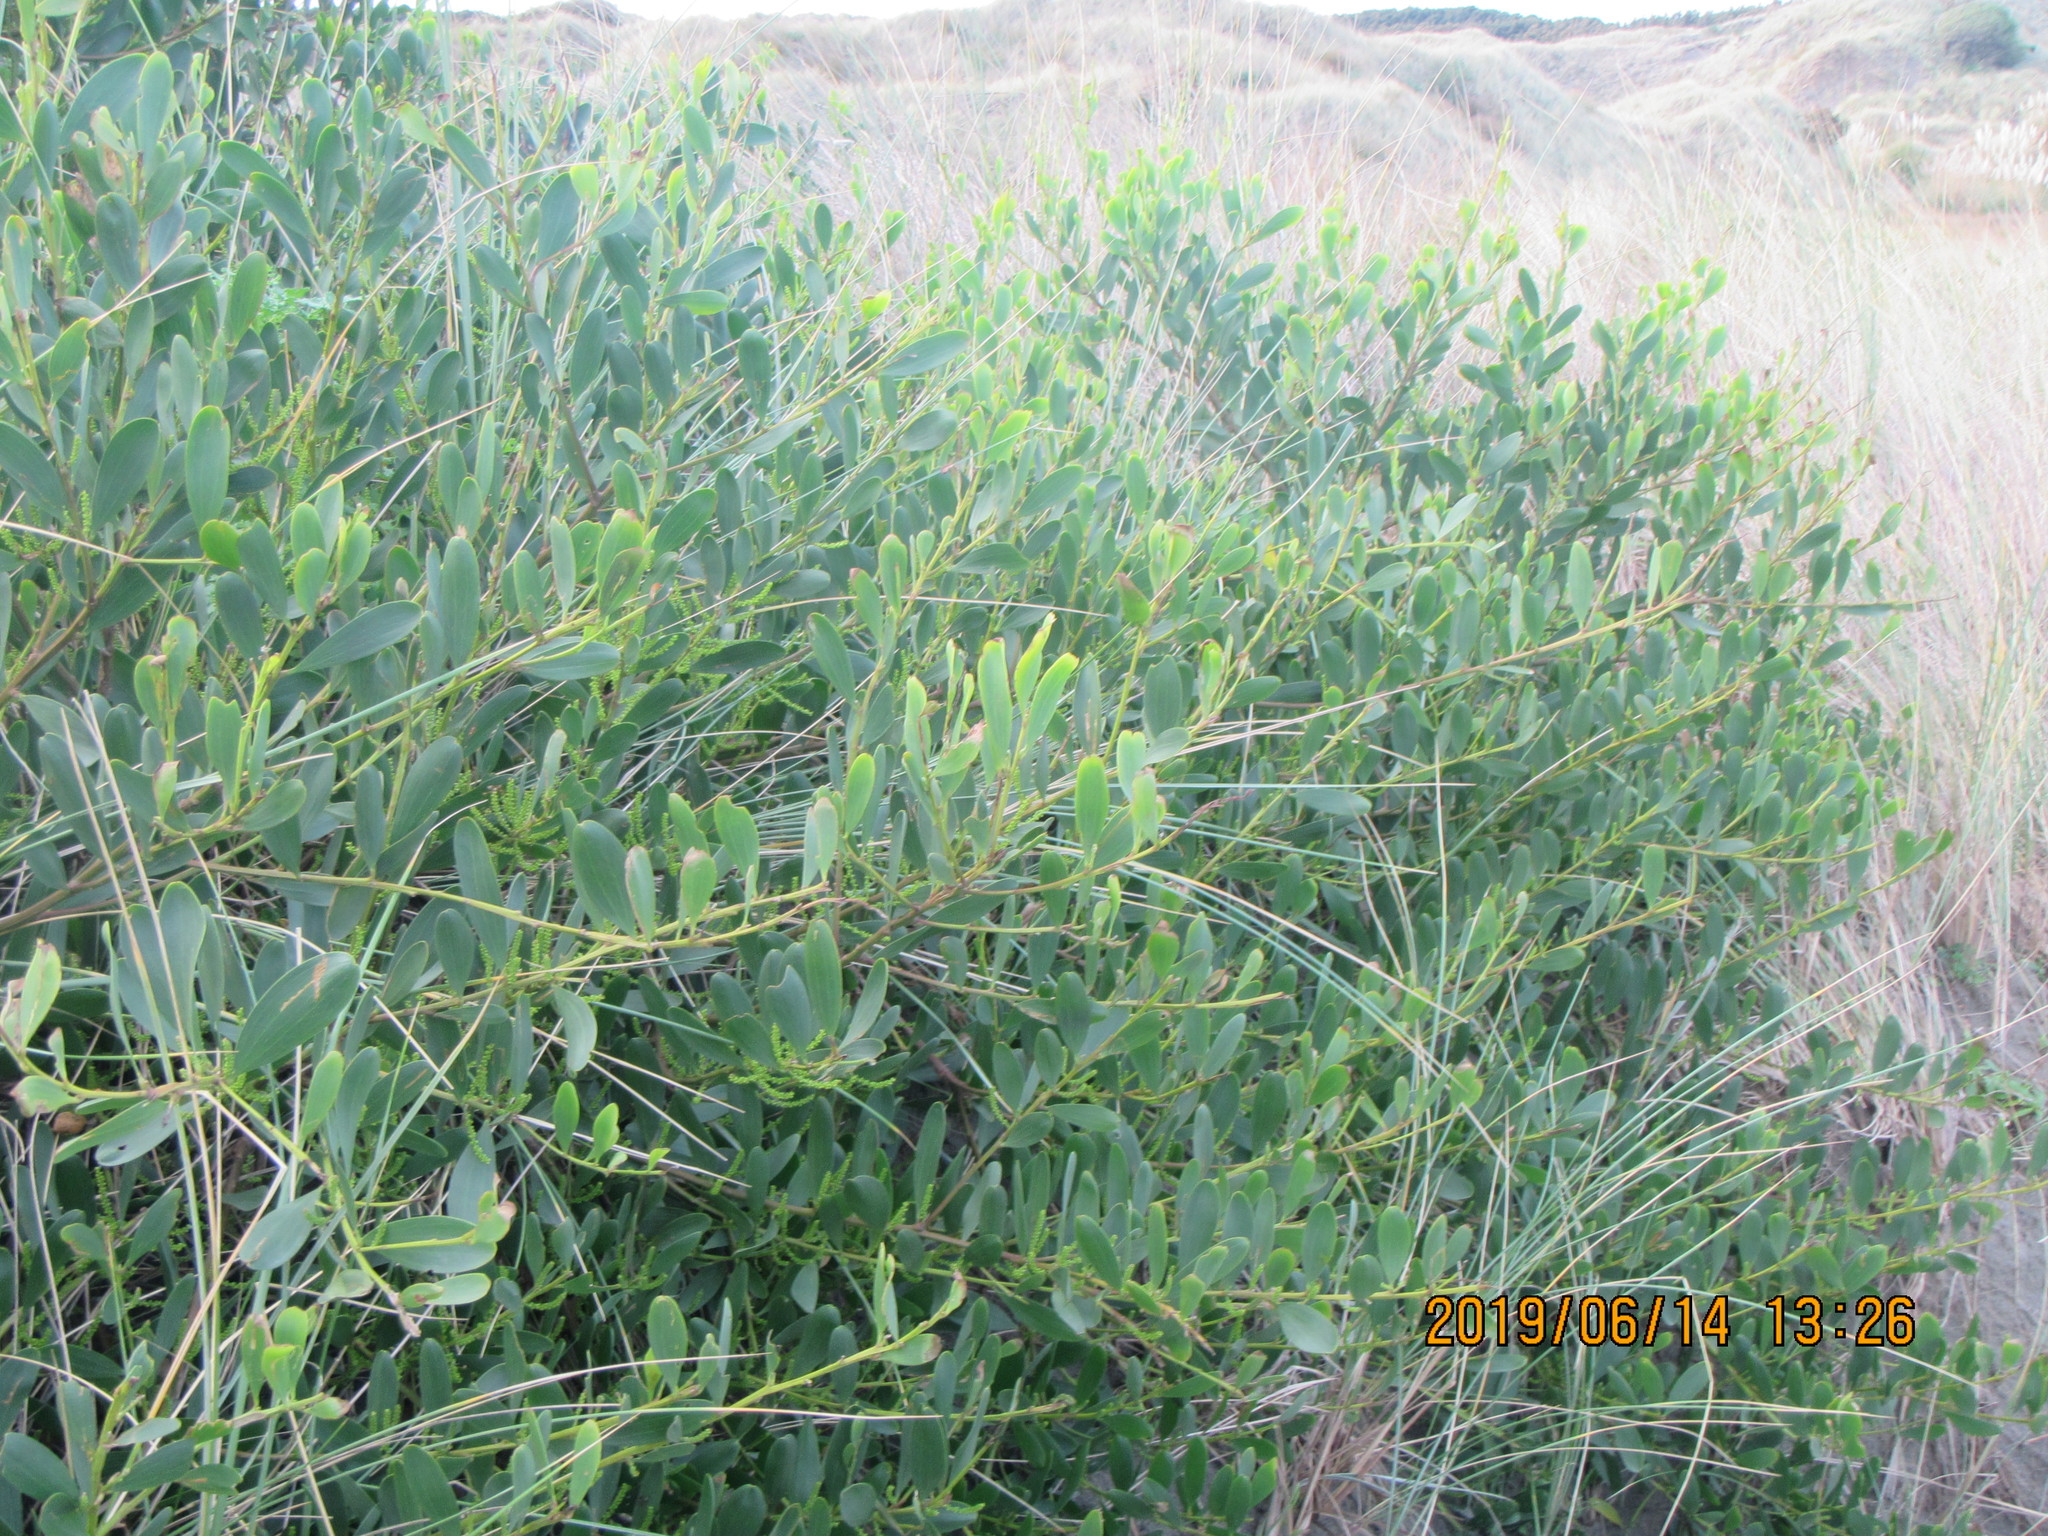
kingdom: Plantae
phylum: Tracheophyta
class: Magnoliopsida
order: Fabales
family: Fabaceae
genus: Acacia
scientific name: Acacia longifolia
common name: Sydney golden wattle
